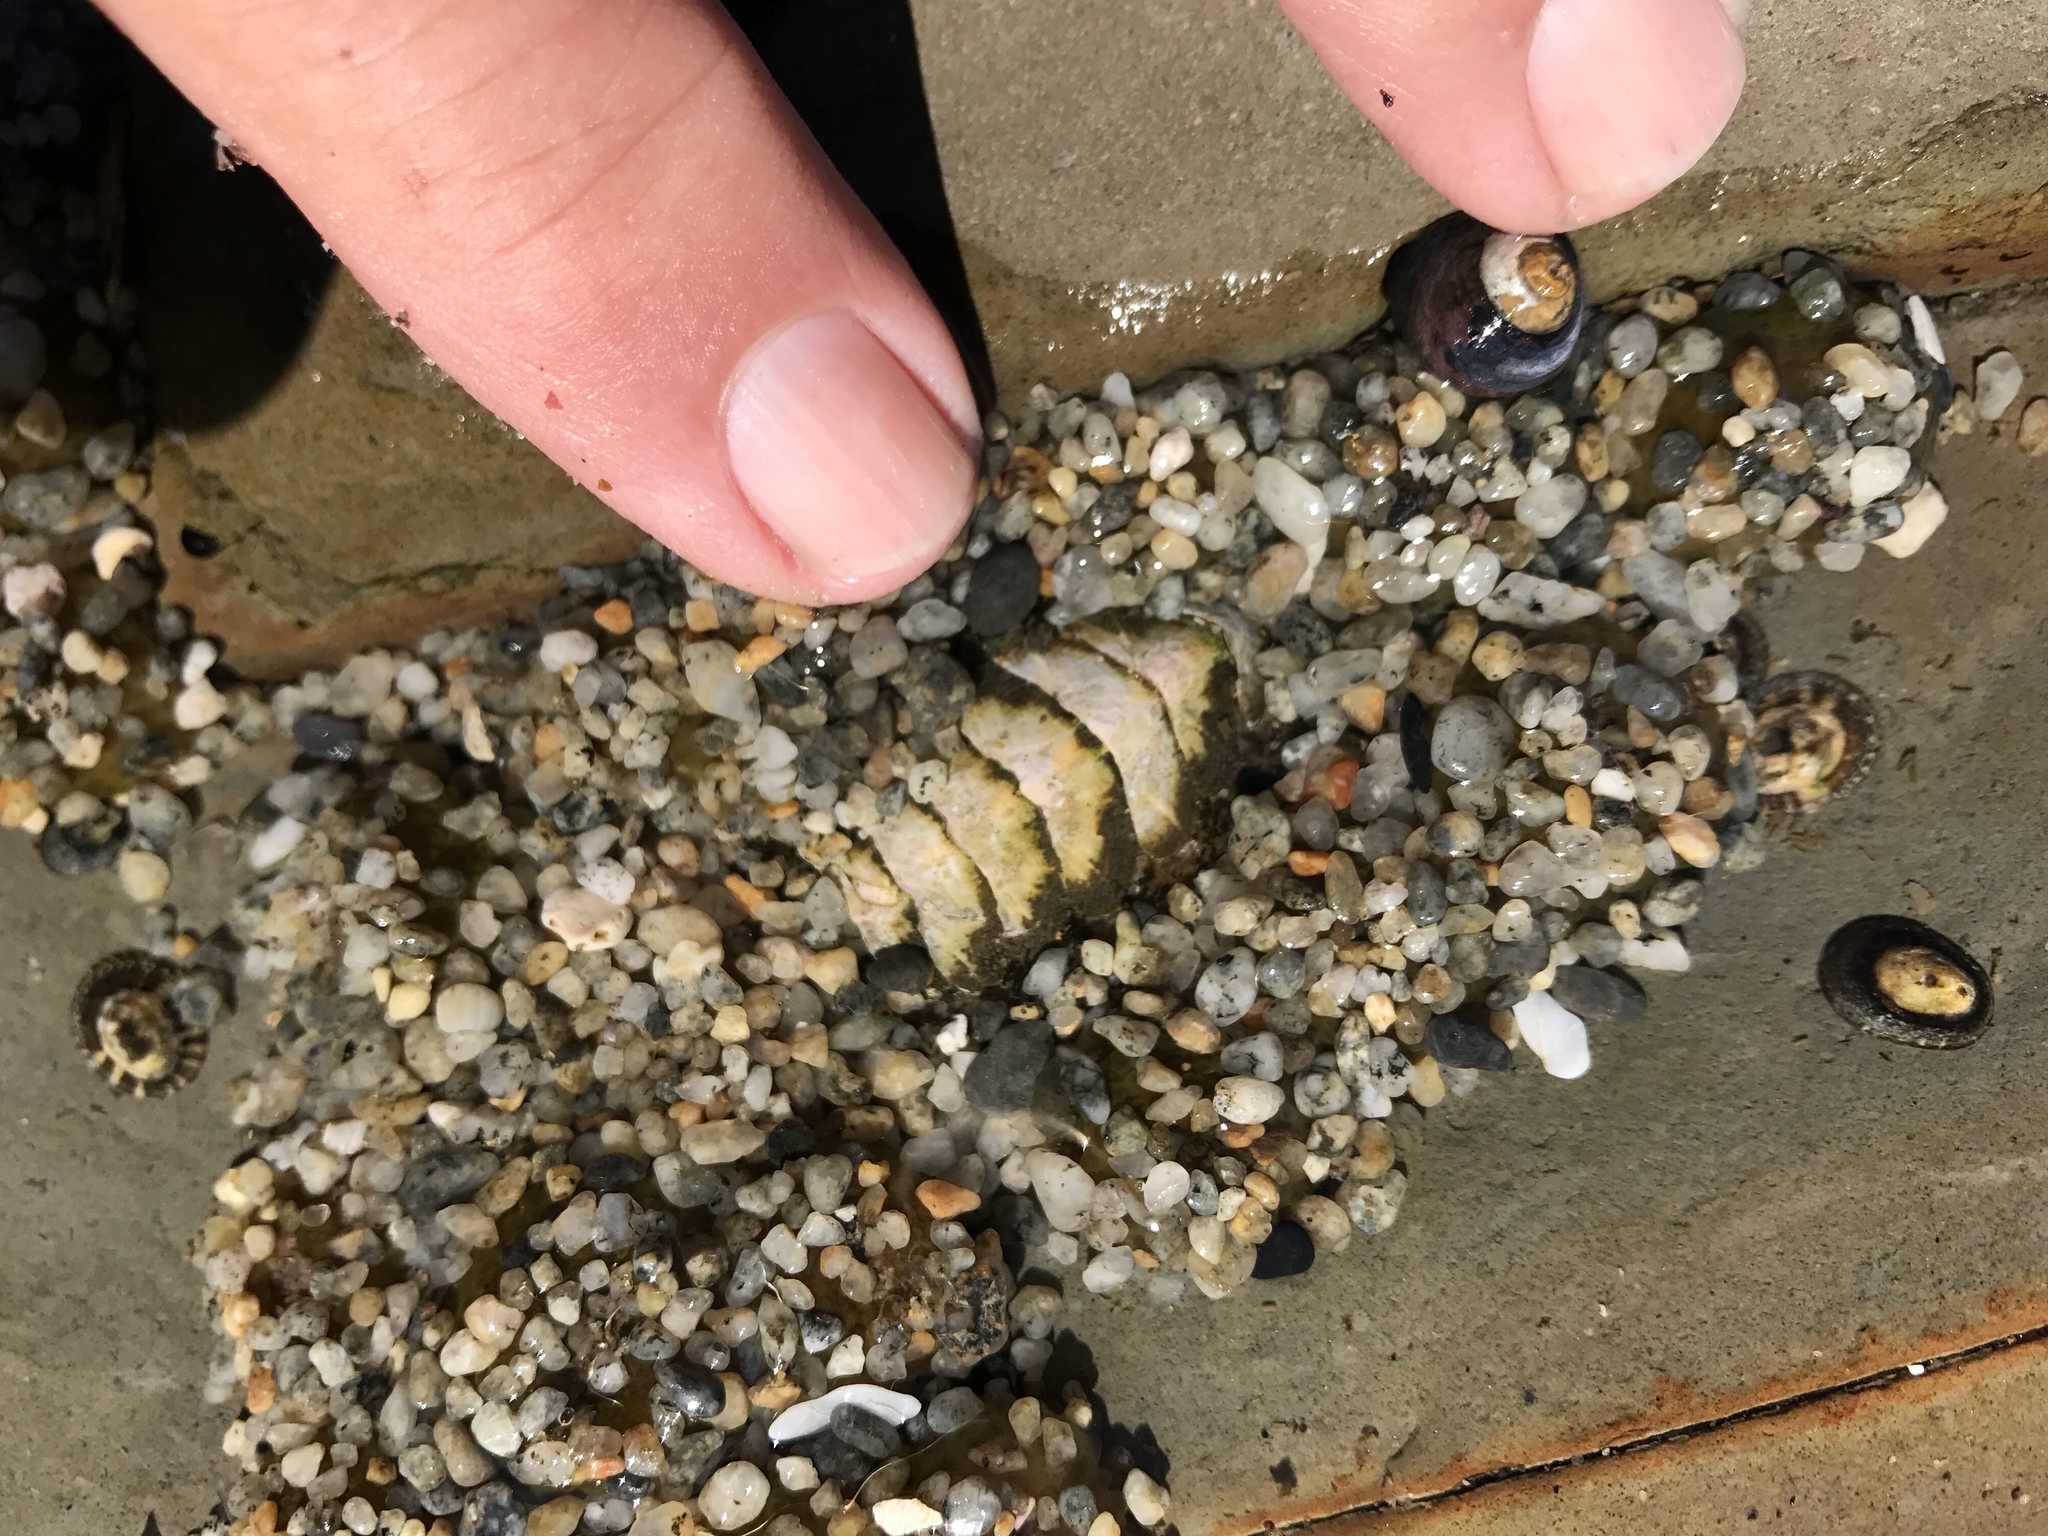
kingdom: Animalia
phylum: Mollusca
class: Polyplacophora
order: Chitonida
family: Mopaliidae
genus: Mopalia
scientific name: Mopalia muscosa
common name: Mossy chiton
